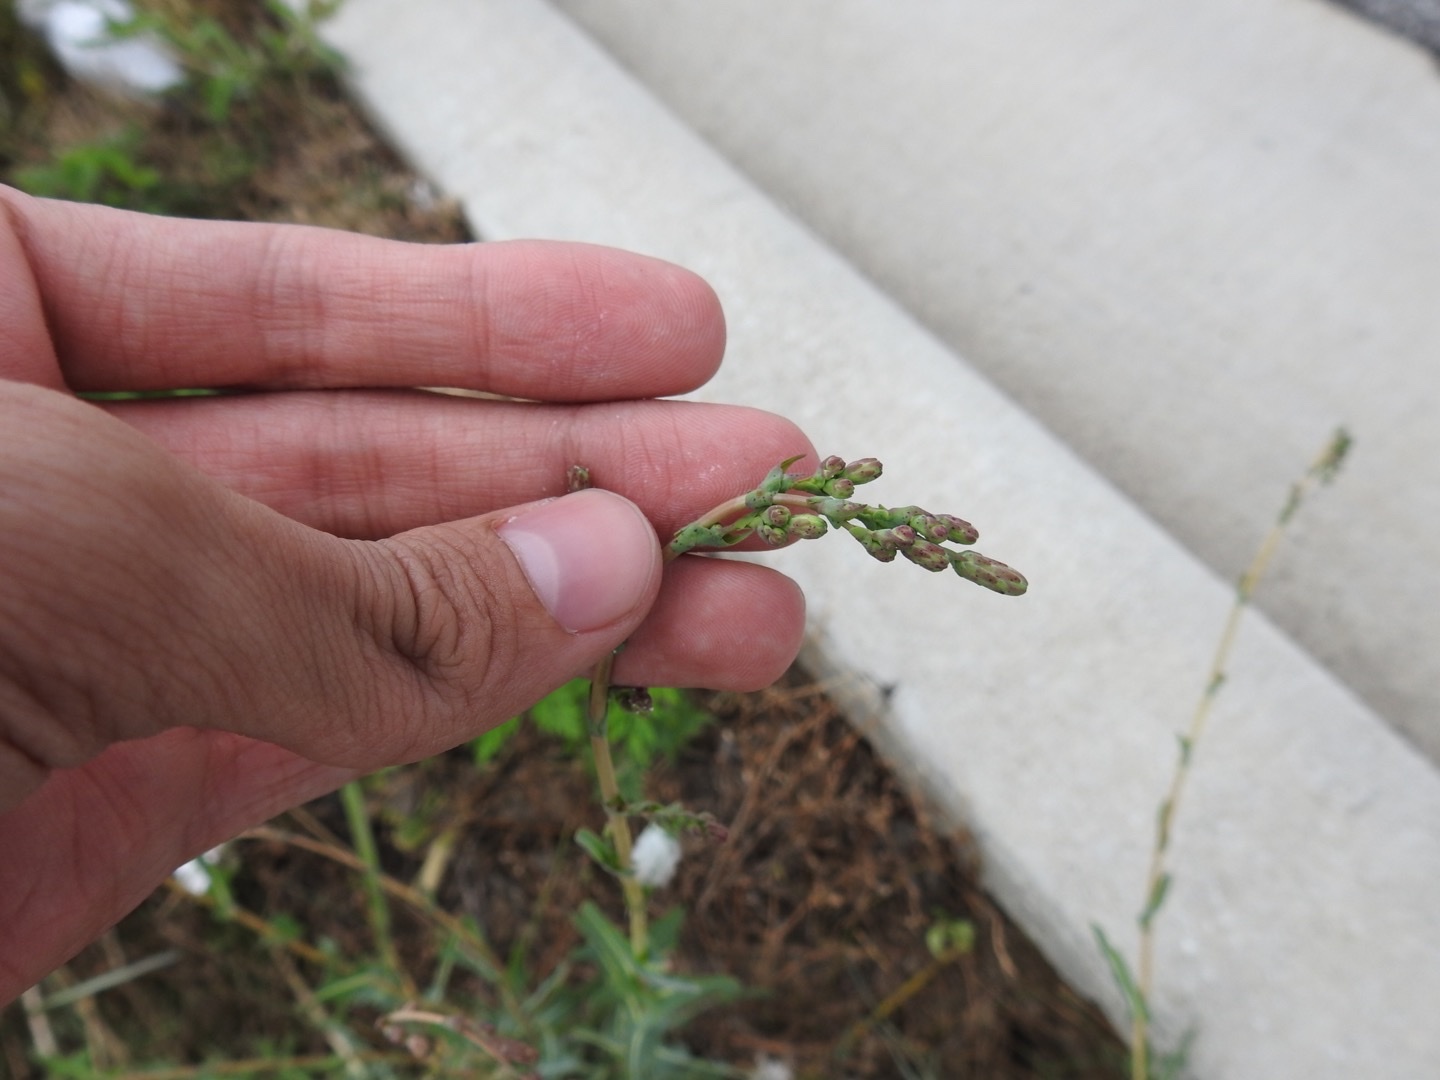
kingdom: Plantae
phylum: Tracheophyta
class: Magnoliopsida
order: Asterales
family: Asteraceae
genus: Lactuca
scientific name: Lactuca saligna
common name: Wild lettuce
